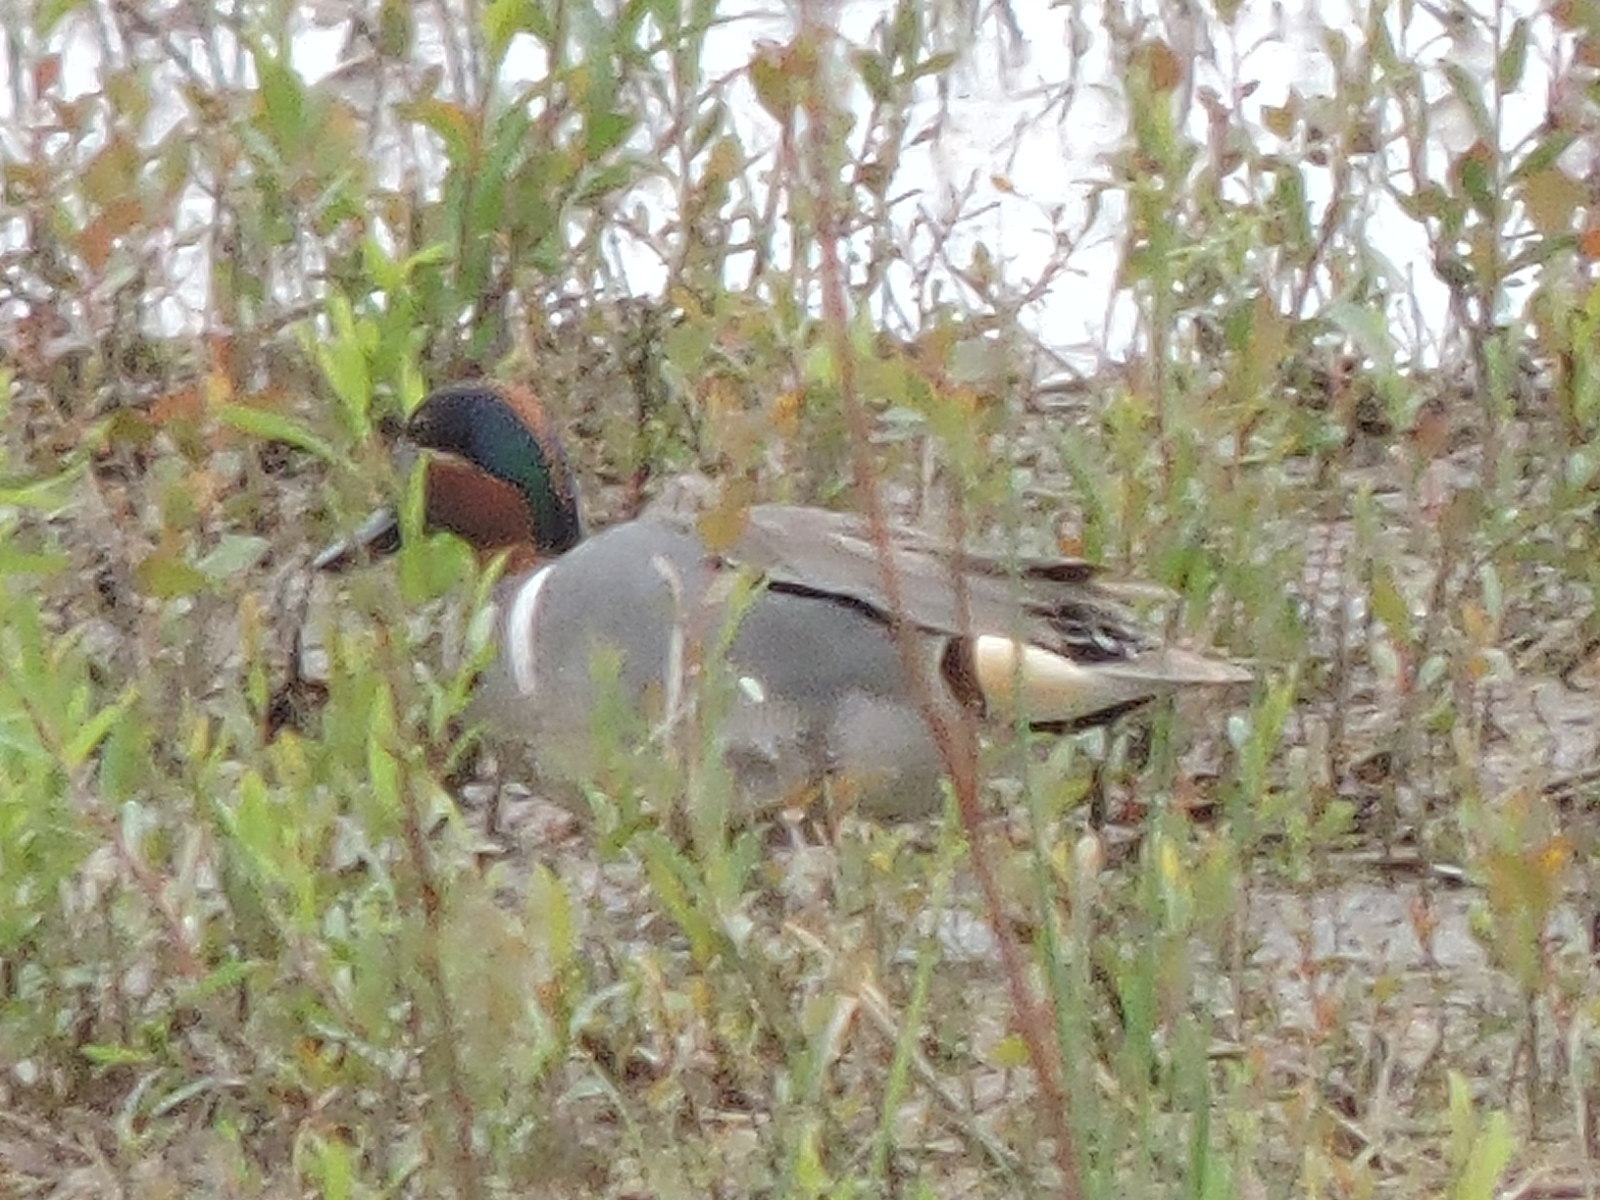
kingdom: Animalia
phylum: Chordata
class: Aves
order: Anseriformes
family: Anatidae
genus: Anas
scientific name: Anas crecca
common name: Eurasian teal
